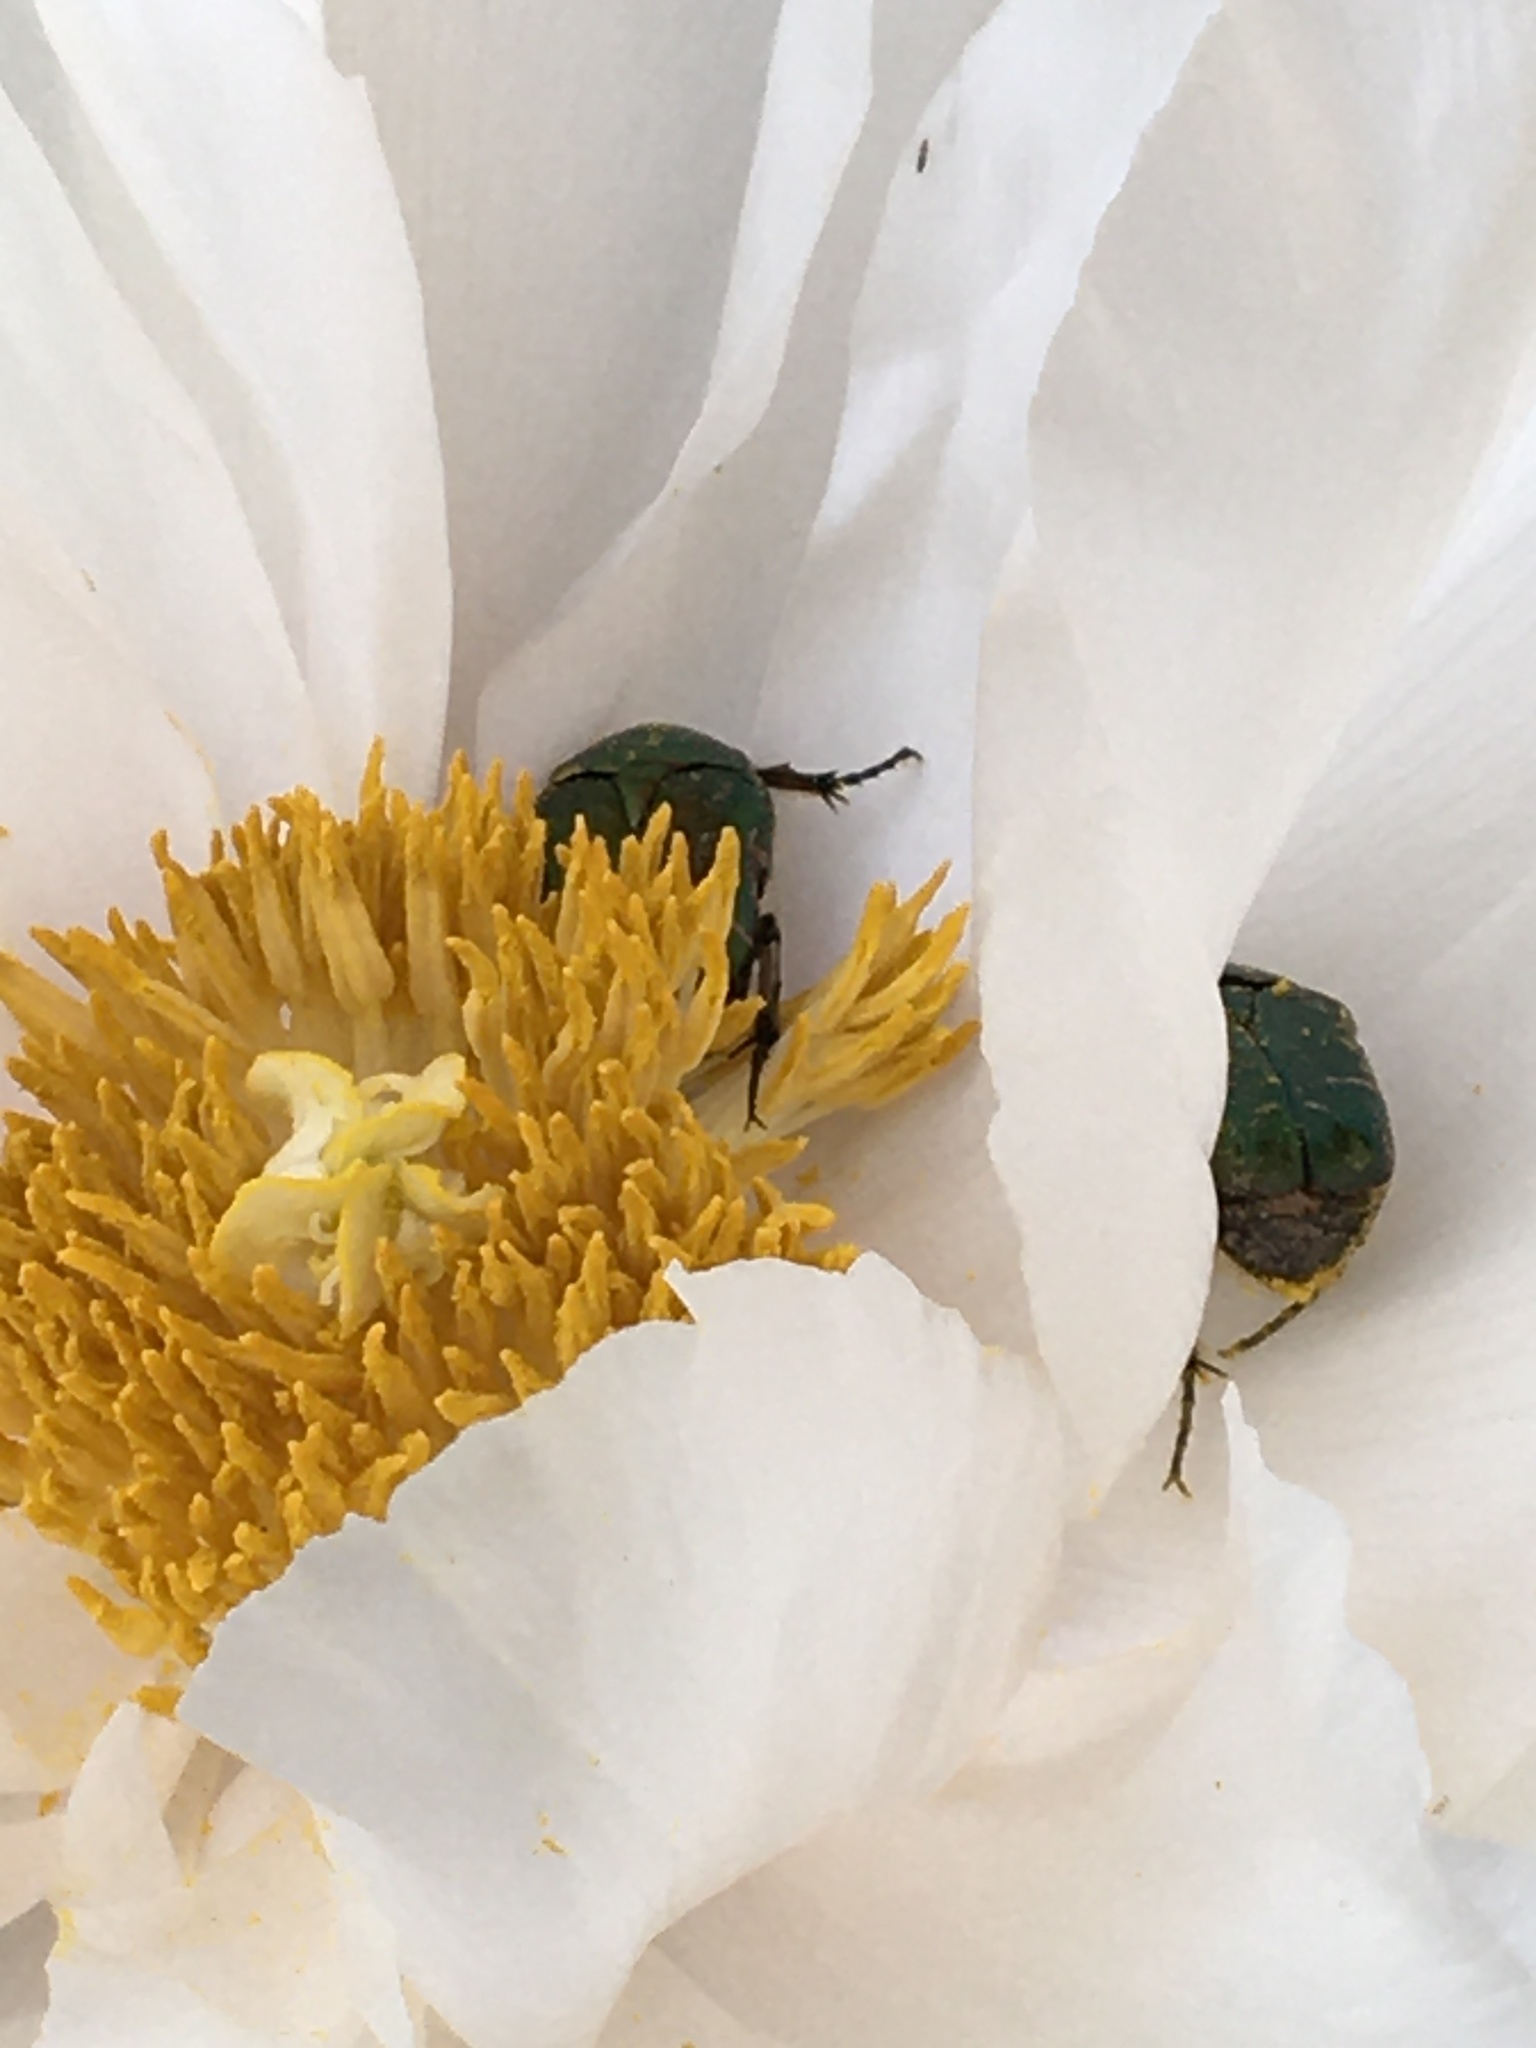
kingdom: Animalia
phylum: Arthropoda
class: Insecta
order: Coleoptera
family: Scarabaeidae
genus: Cetonia
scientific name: Cetonia aurata
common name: Rose chafer
